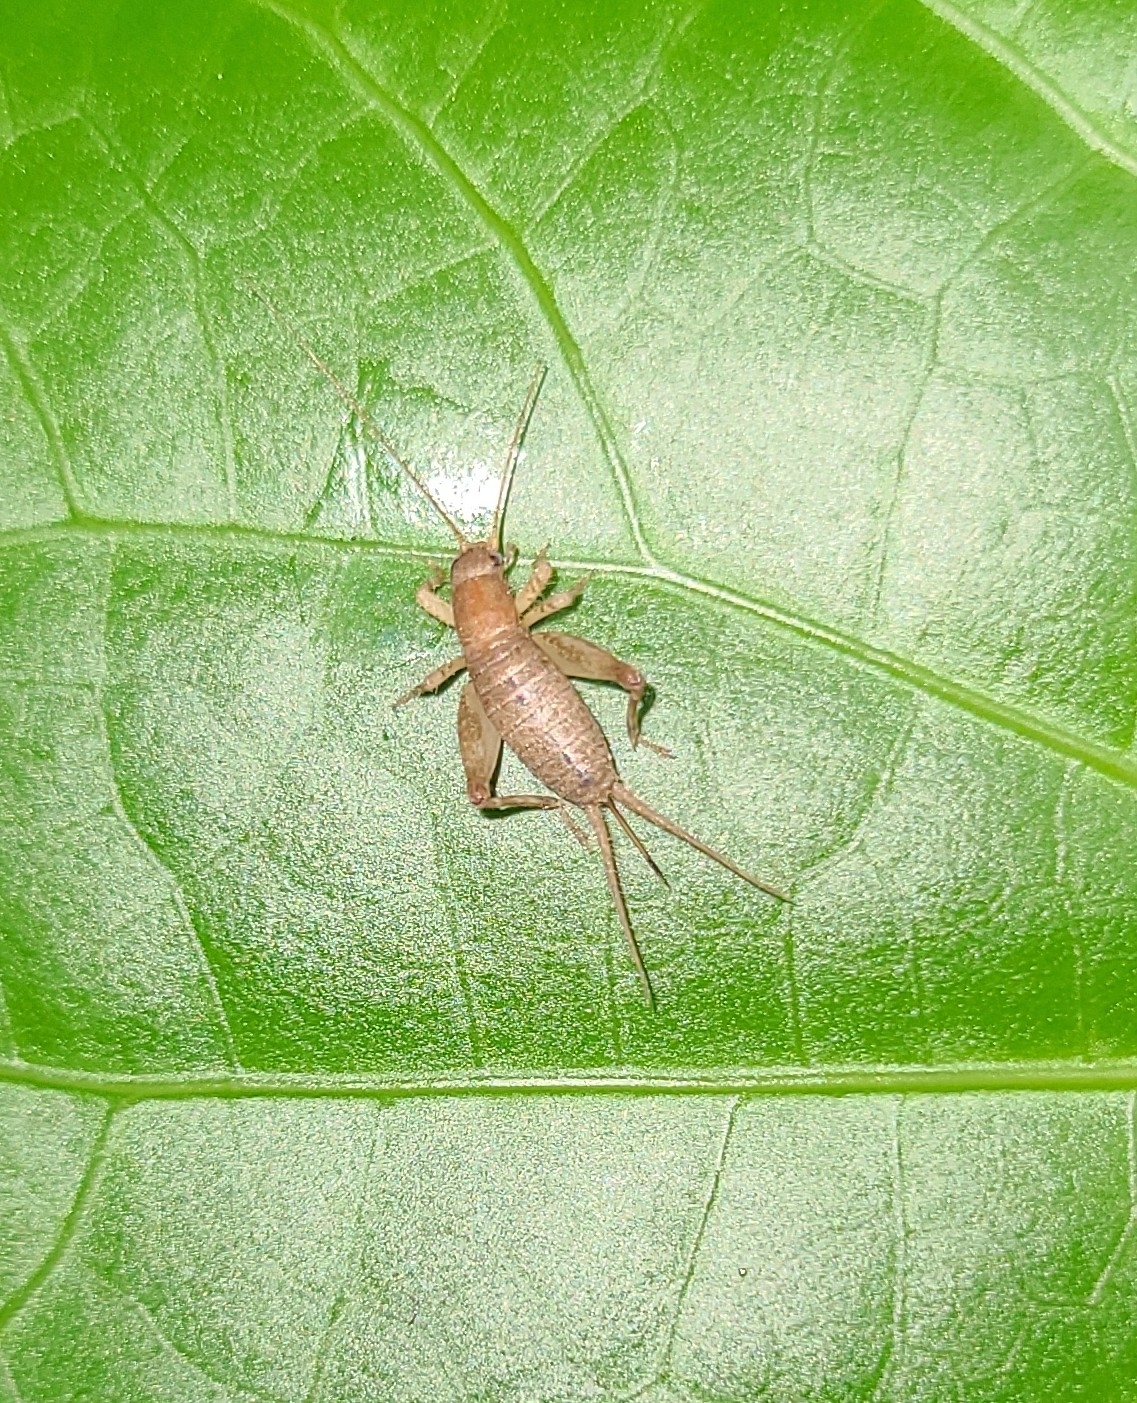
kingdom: Animalia
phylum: Arthropoda
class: Insecta
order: Orthoptera
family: Mogoplistidae
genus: Ornebius
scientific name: Ornebius aperta
